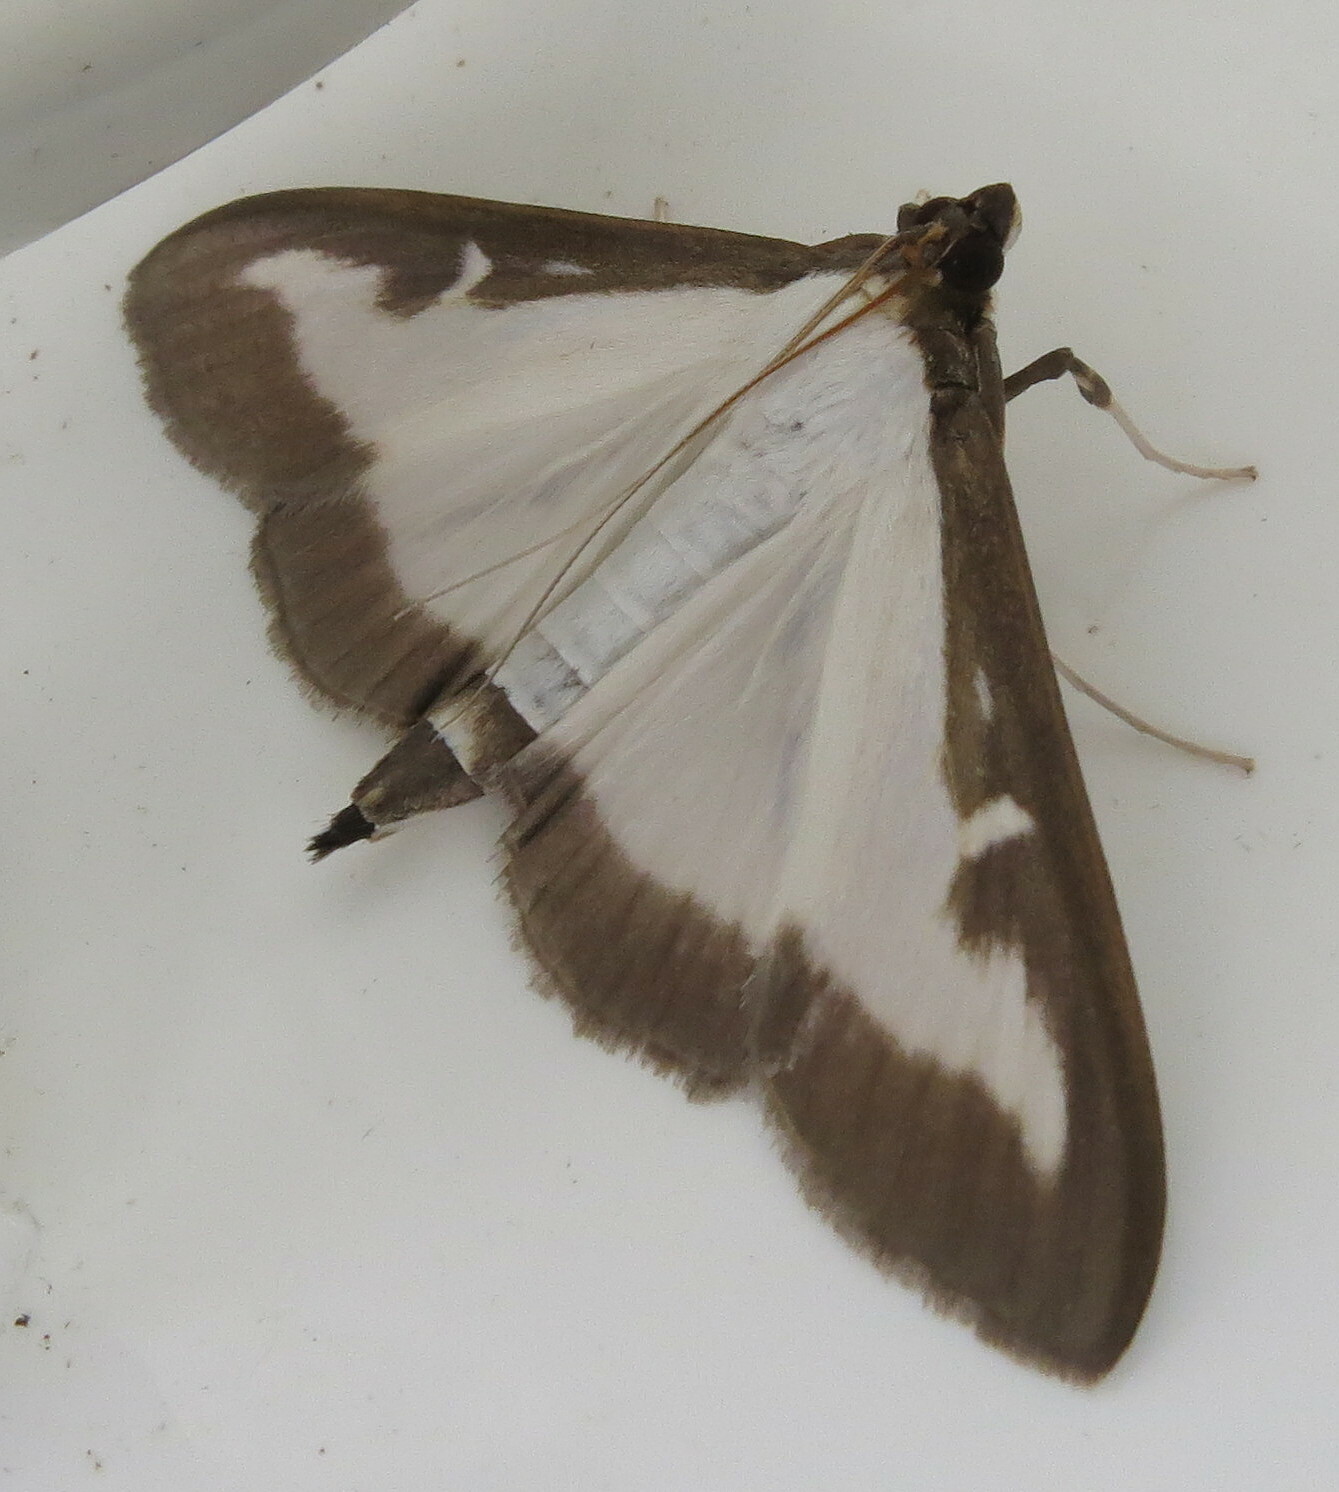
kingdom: Animalia
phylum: Arthropoda
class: Insecta
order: Lepidoptera
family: Crambidae
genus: Cydalima
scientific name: Cydalima perspectalis
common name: Box tree moth
